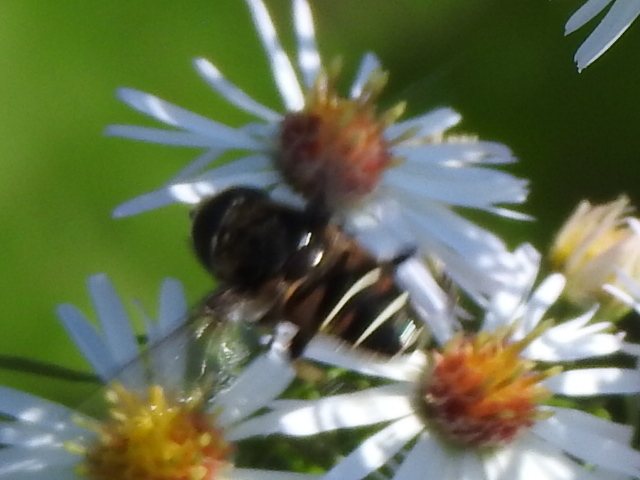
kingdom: Animalia
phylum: Arthropoda
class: Insecta
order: Diptera
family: Syrphidae
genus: Eristalis
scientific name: Eristalis dimidiata
